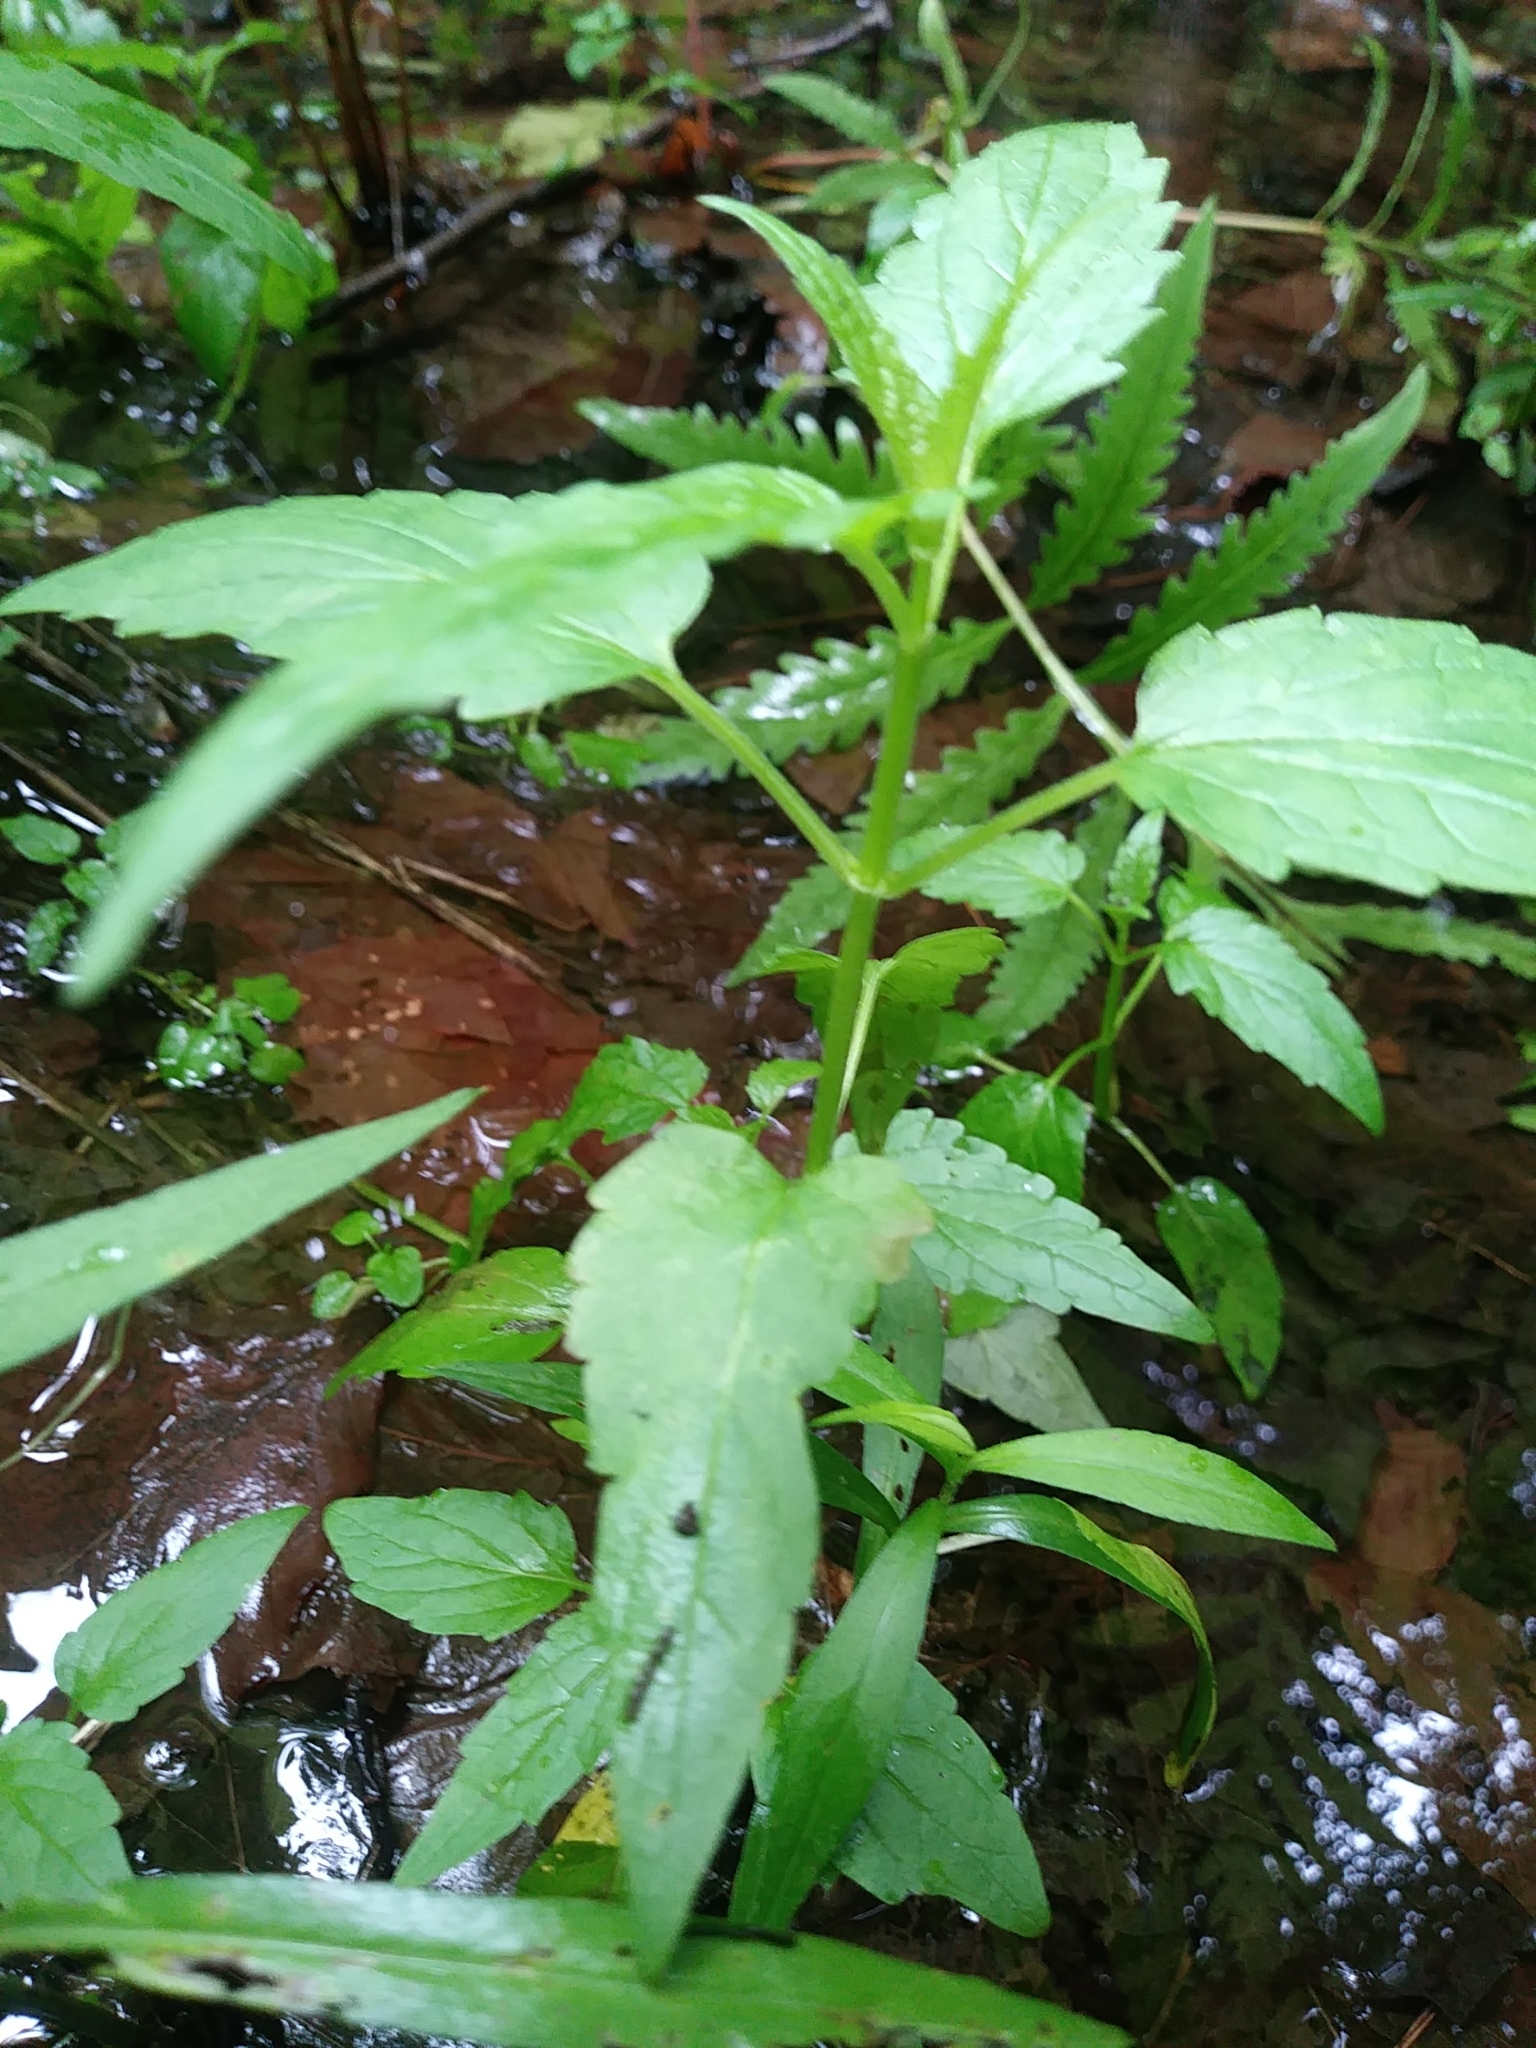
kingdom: Plantae
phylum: Tracheophyta
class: Magnoliopsida
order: Lamiales
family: Lamiaceae
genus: Scutellaria
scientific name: Scutellaria lateriflora
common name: Blue skullcap
